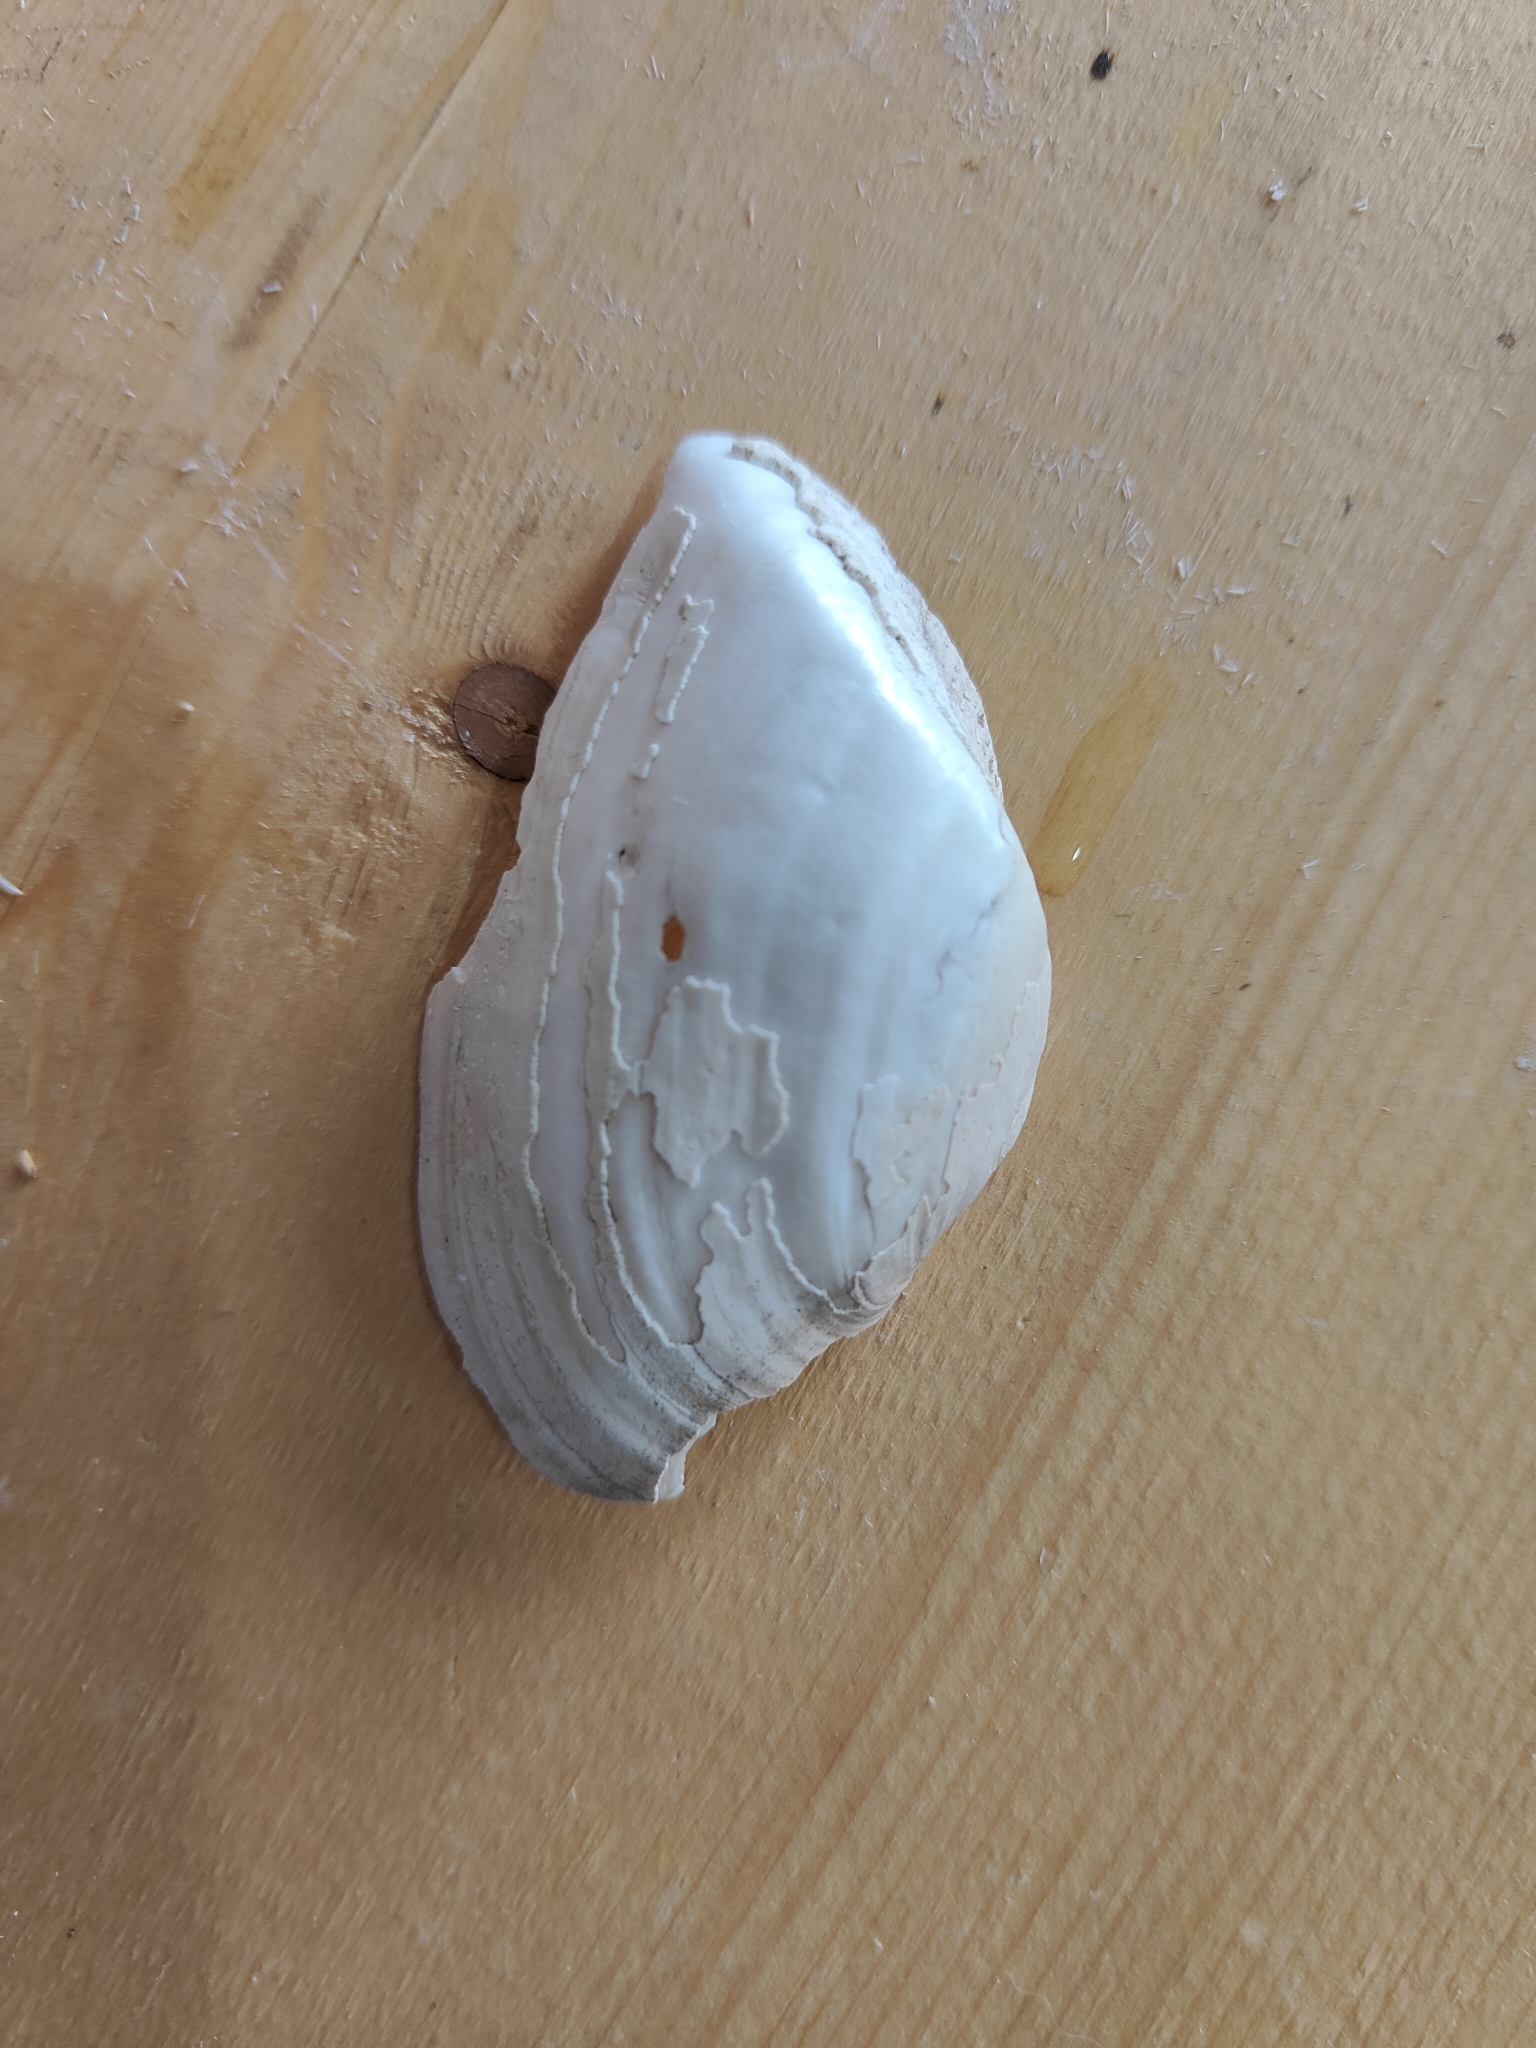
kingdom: Animalia
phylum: Mollusca
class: Bivalvia
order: Unionida
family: Unionidae
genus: Alasmidonta
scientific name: Alasmidonta marginata
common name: Elktoe
